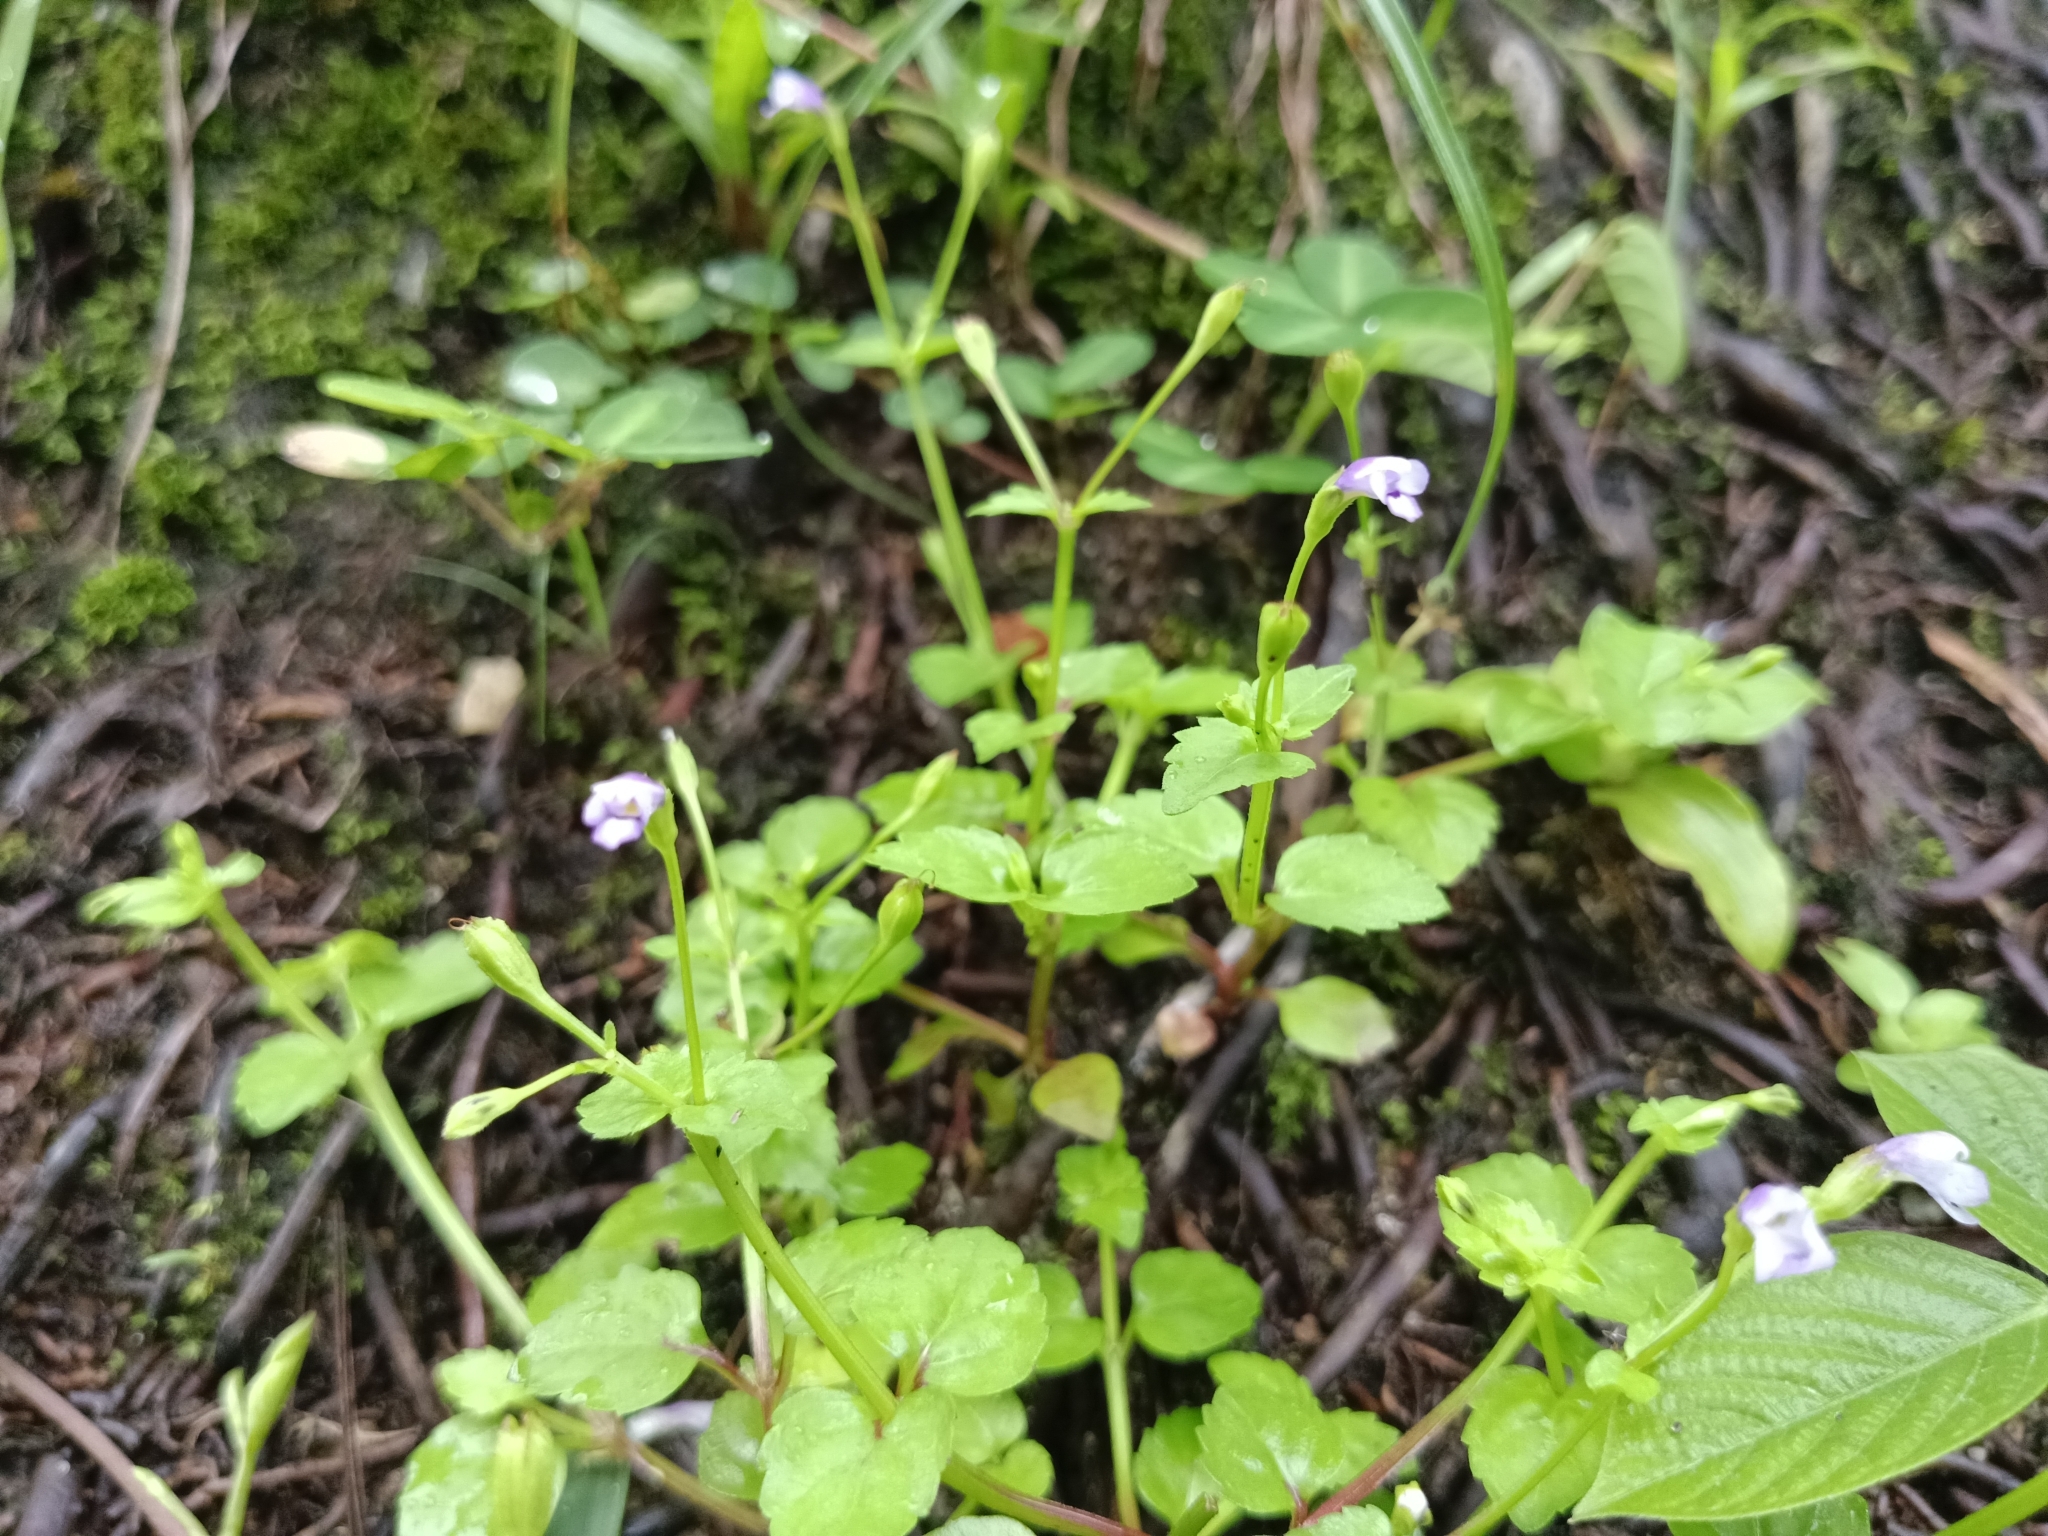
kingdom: Plantae
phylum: Tracheophyta
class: Magnoliopsida
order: Lamiales
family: Linderniaceae
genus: Torenia
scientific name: Torenia crustacea
